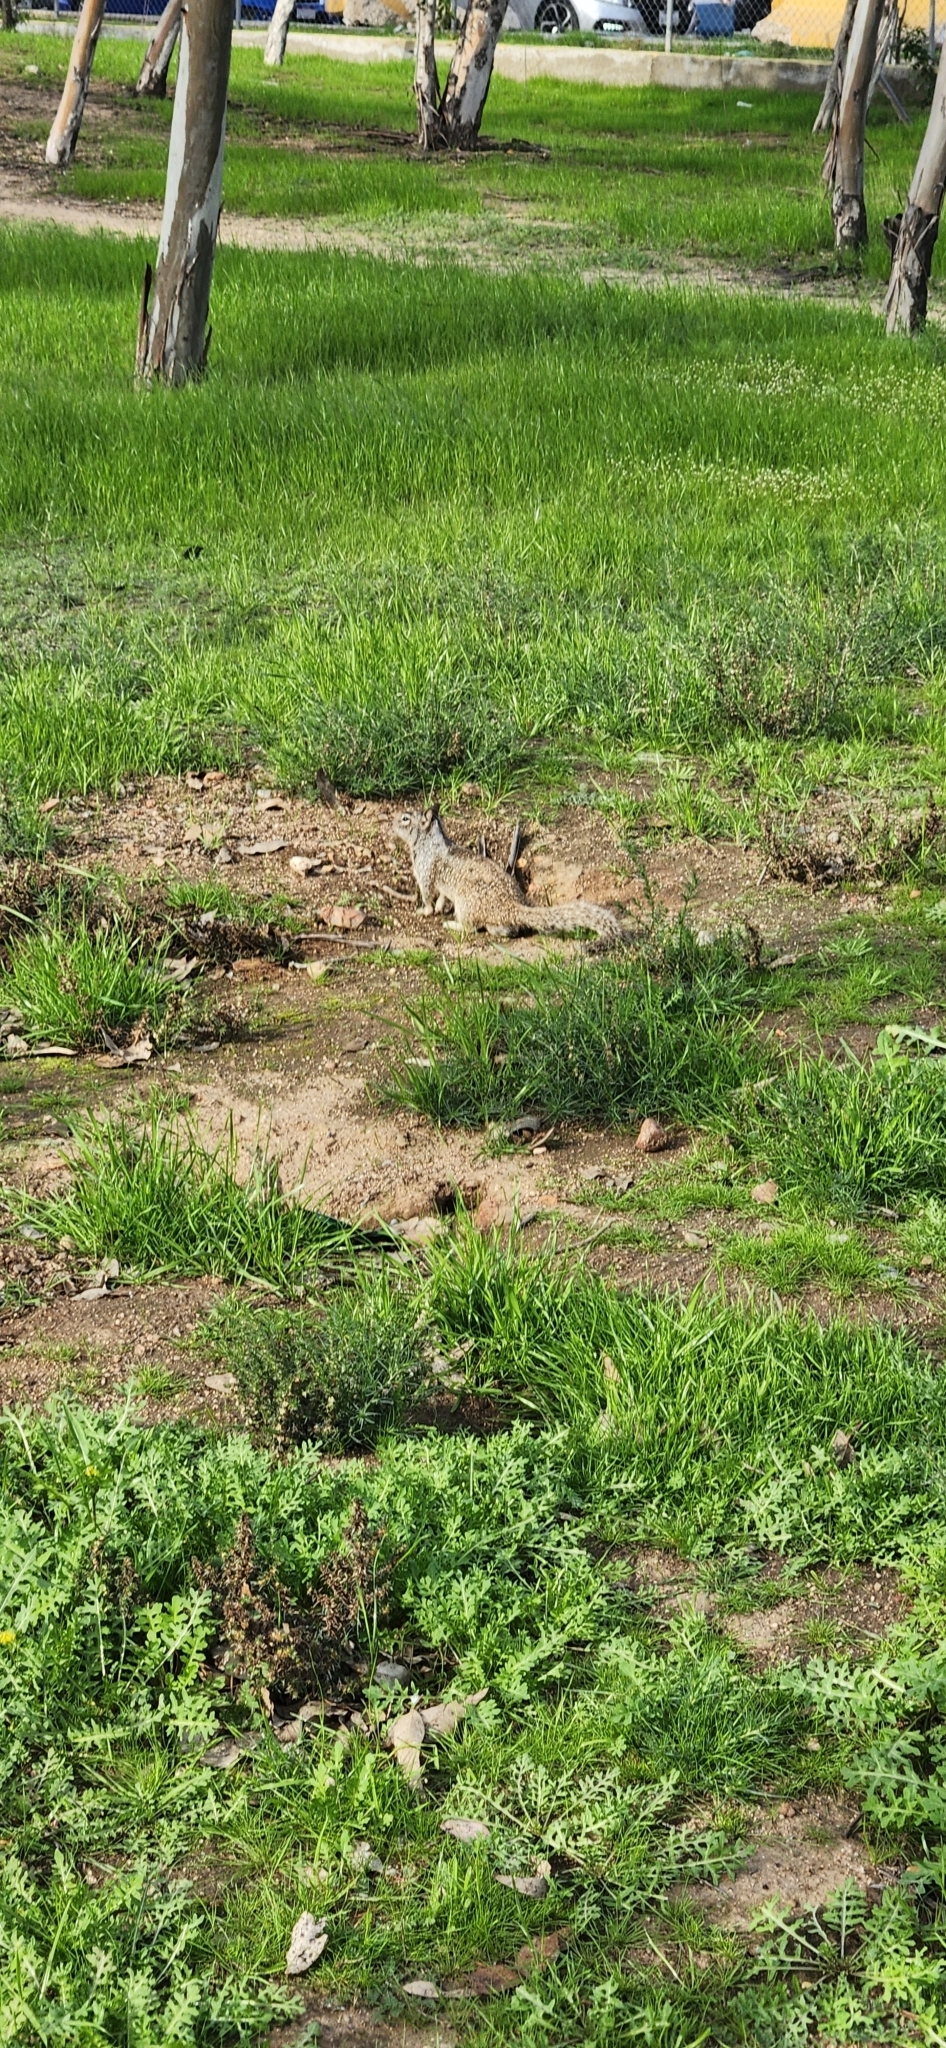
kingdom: Animalia
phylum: Chordata
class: Mammalia
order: Rodentia
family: Sciuridae
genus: Otospermophilus
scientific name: Otospermophilus beecheyi
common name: California ground squirrel
